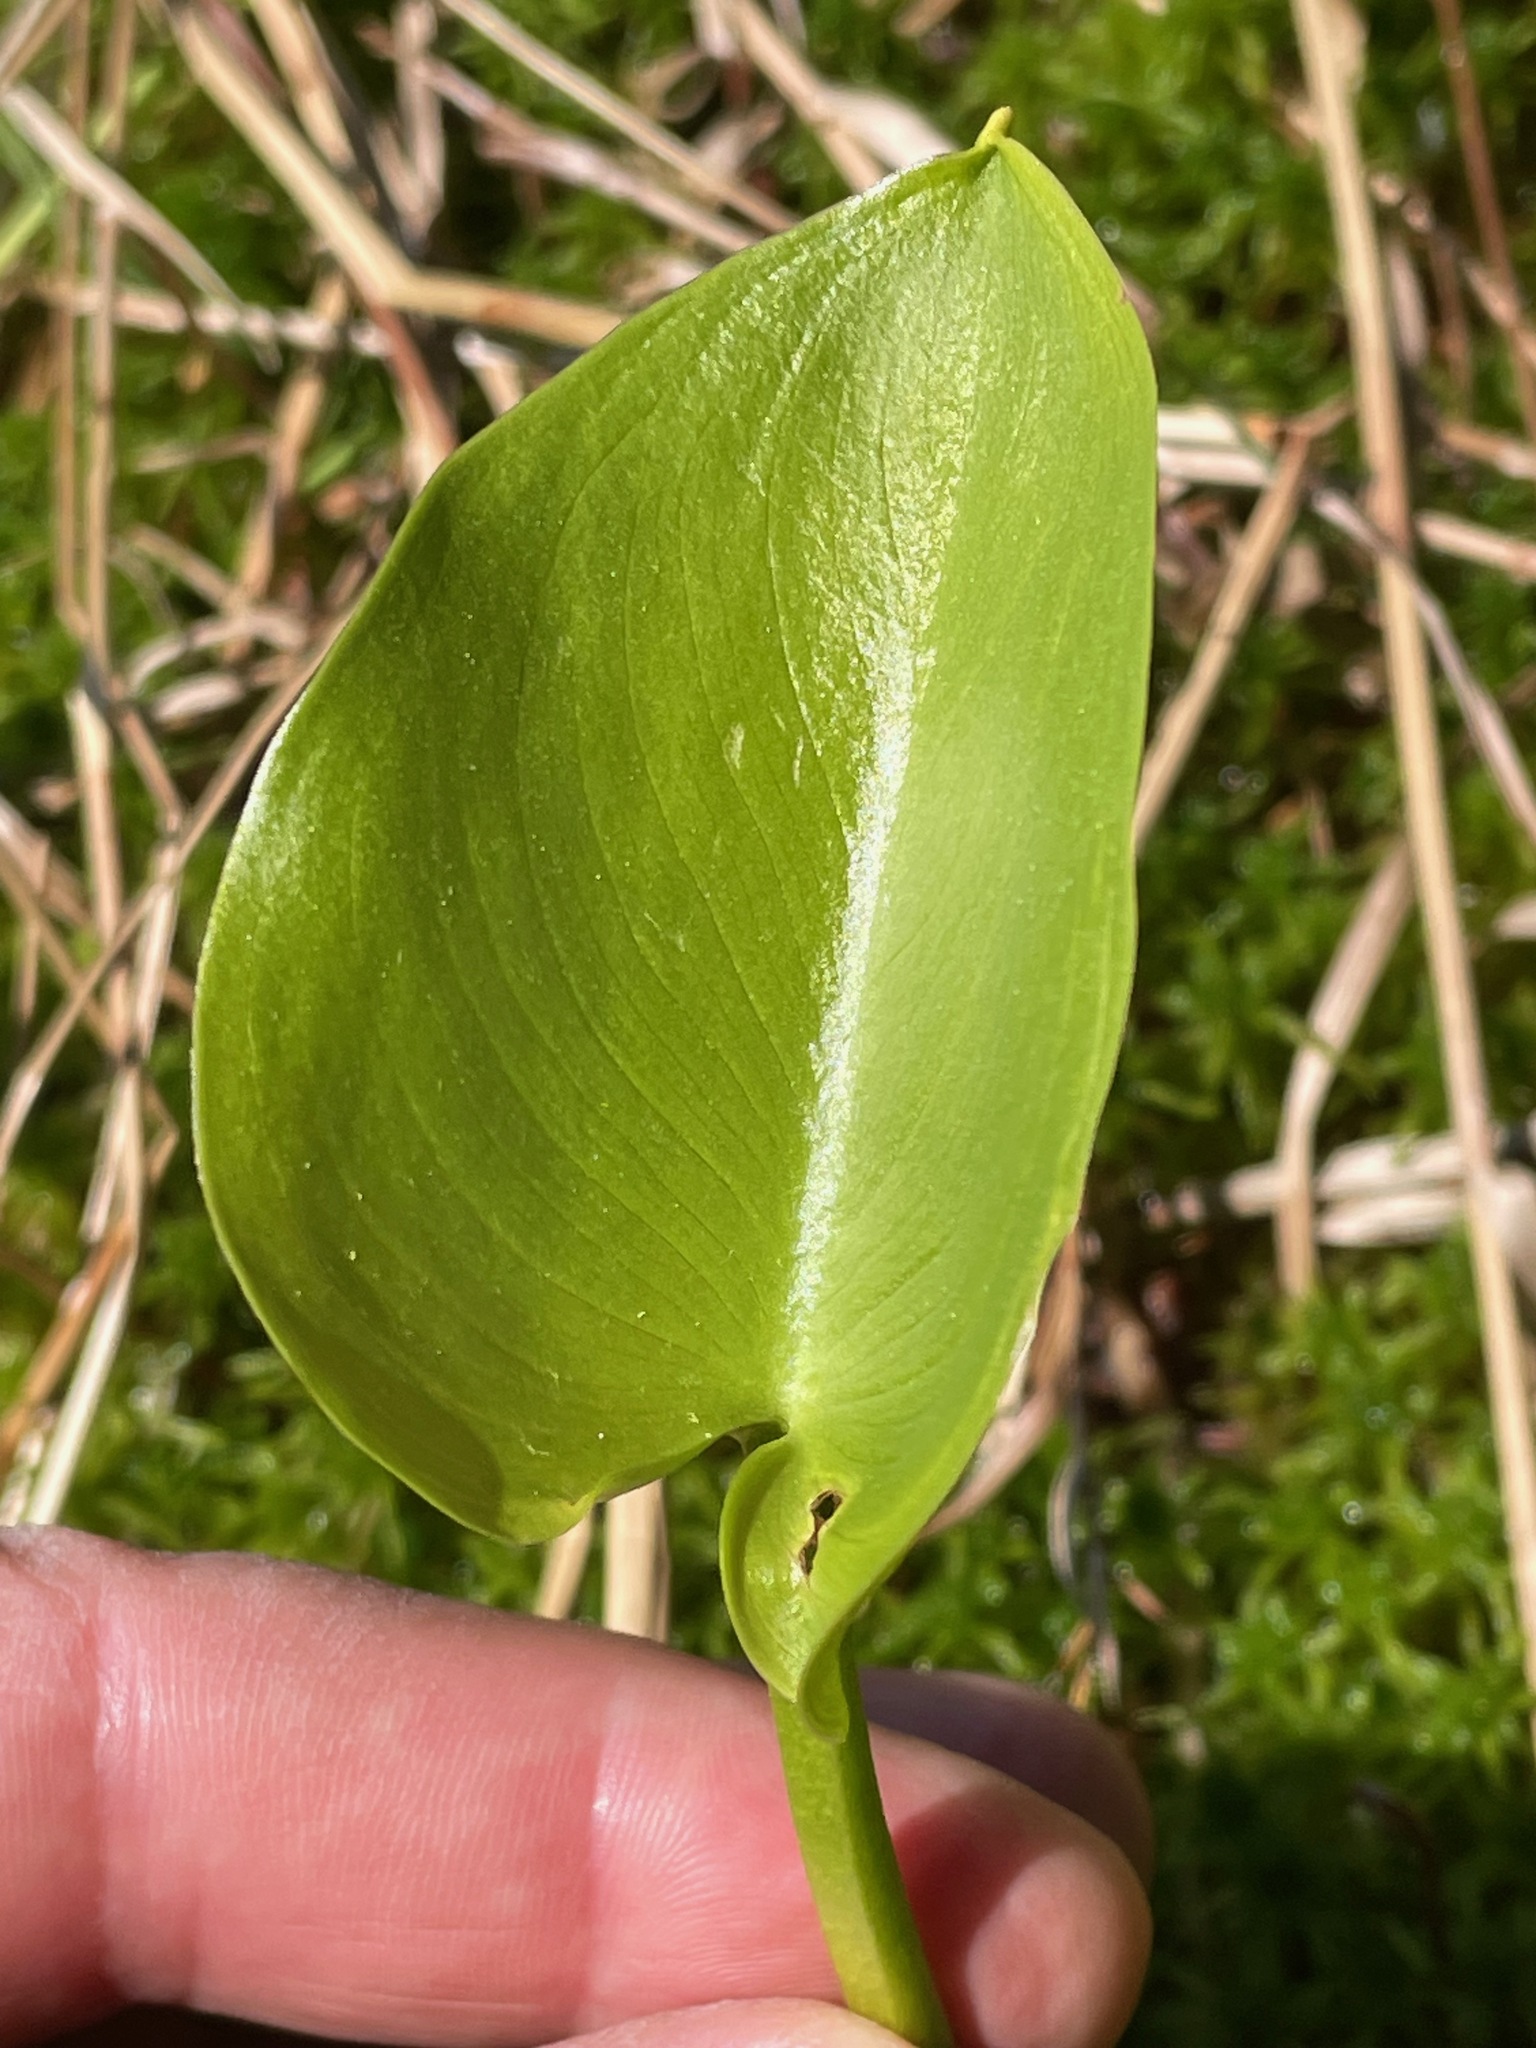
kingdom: Plantae
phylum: Tracheophyta
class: Liliopsida
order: Alismatales
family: Araceae
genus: Calla
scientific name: Calla palustris
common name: Bog arum
